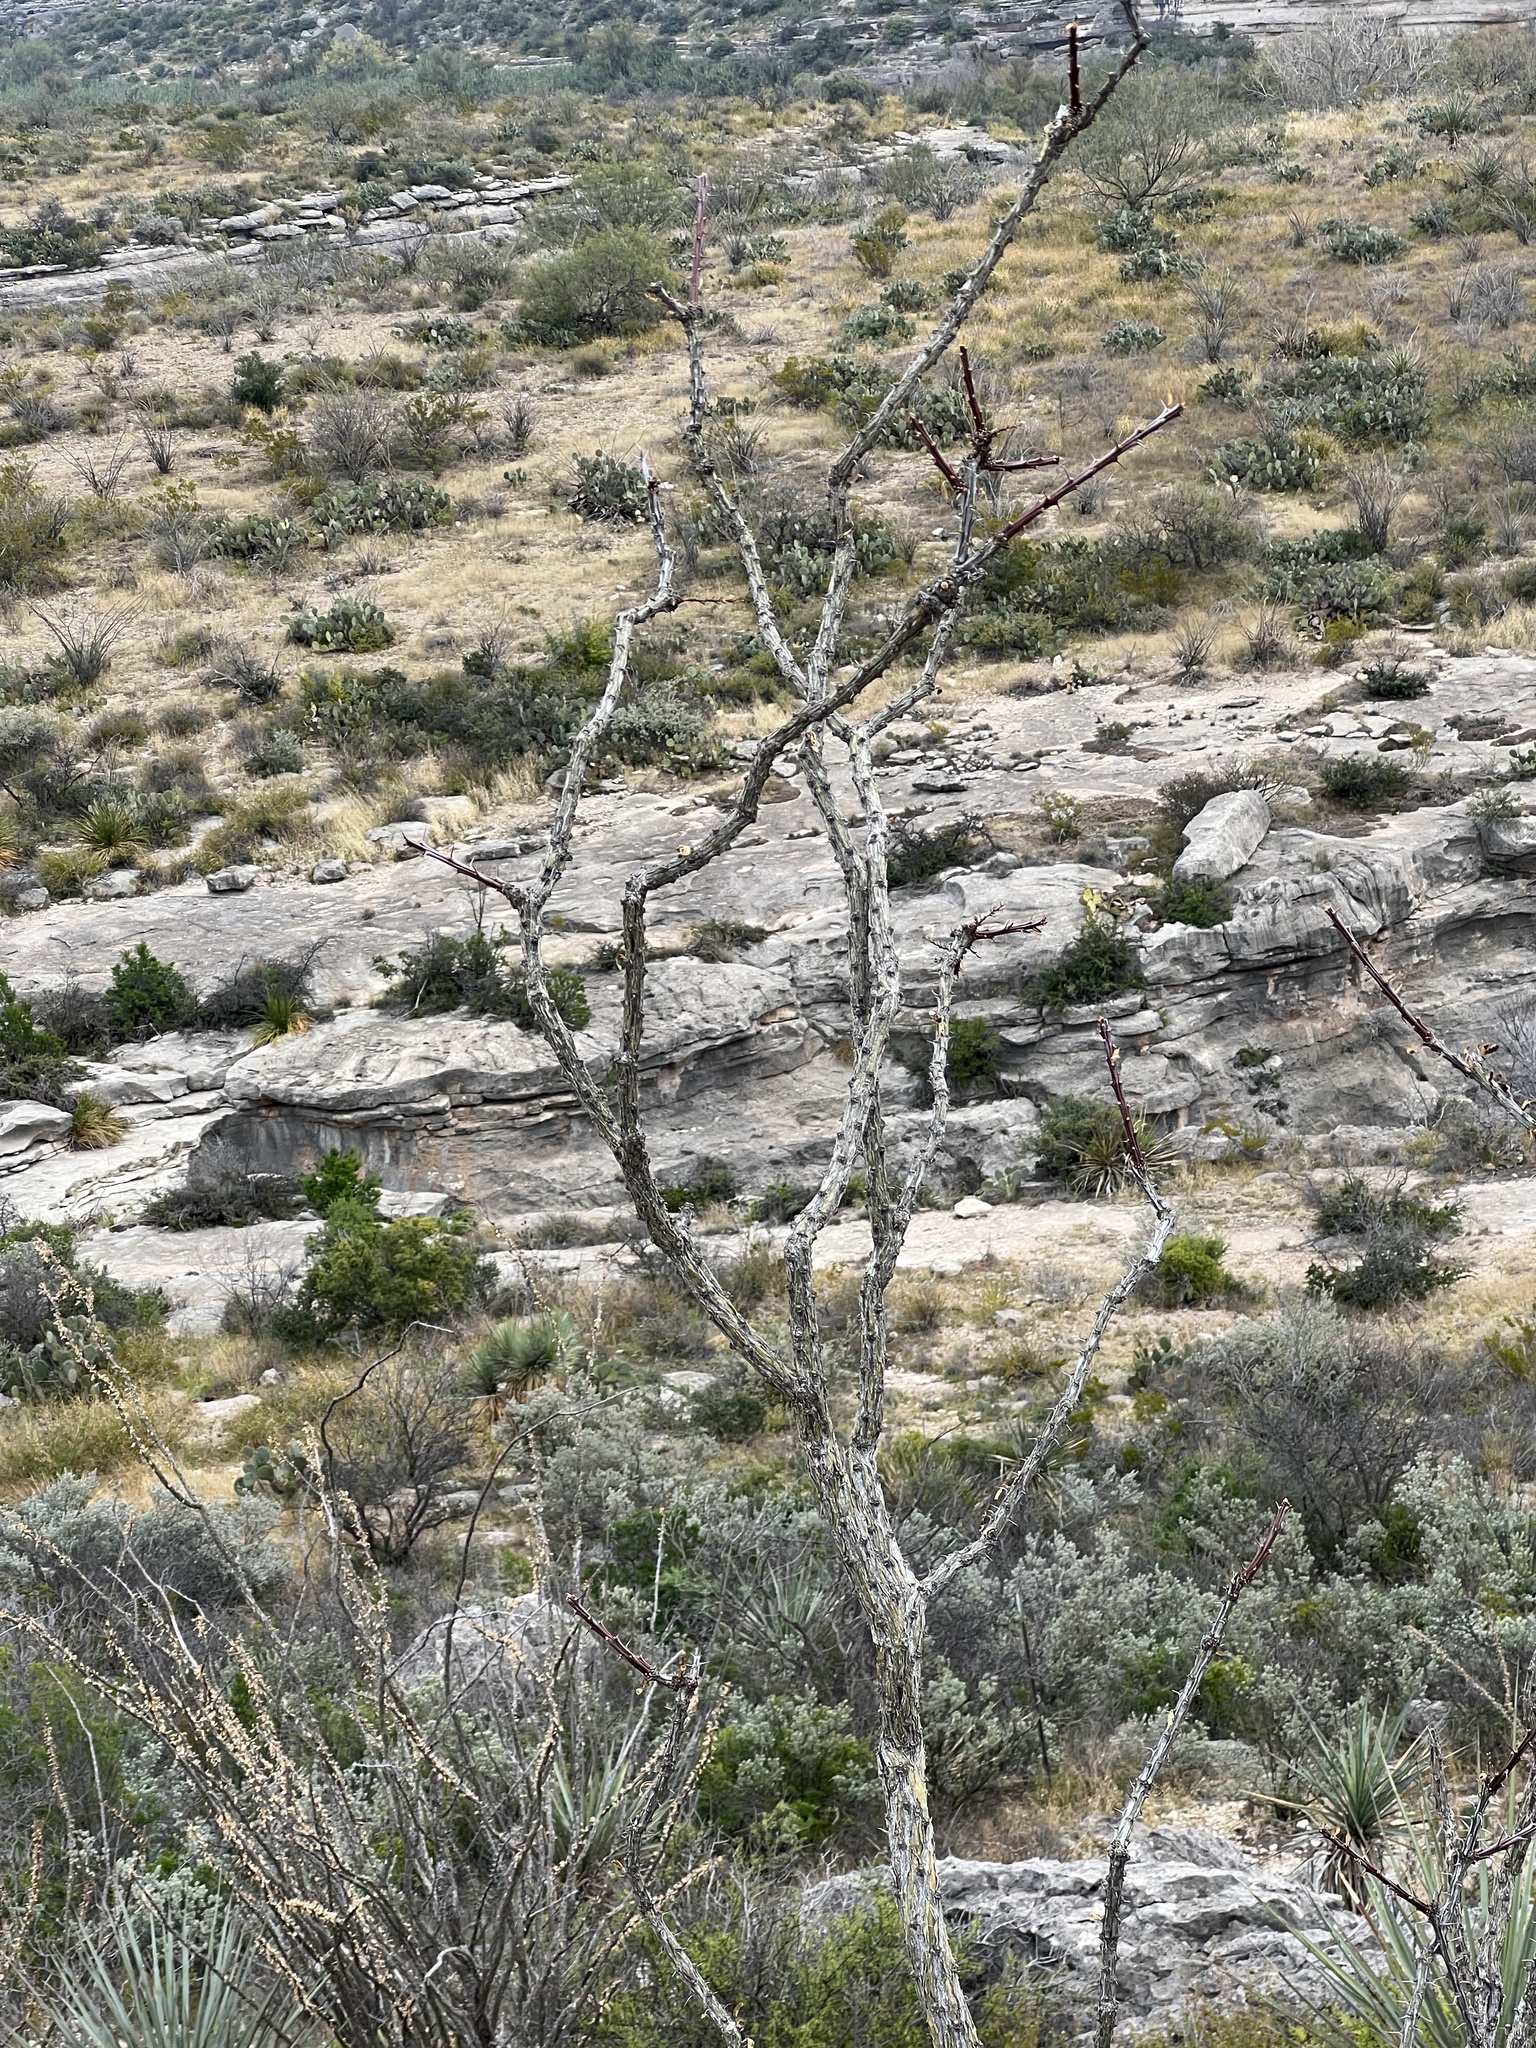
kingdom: Plantae
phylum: Tracheophyta
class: Magnoliopsida
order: Ericales
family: Fouquieriaceae
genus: Fouquieria
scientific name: Fouquieria splendens
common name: Vine-cactus
